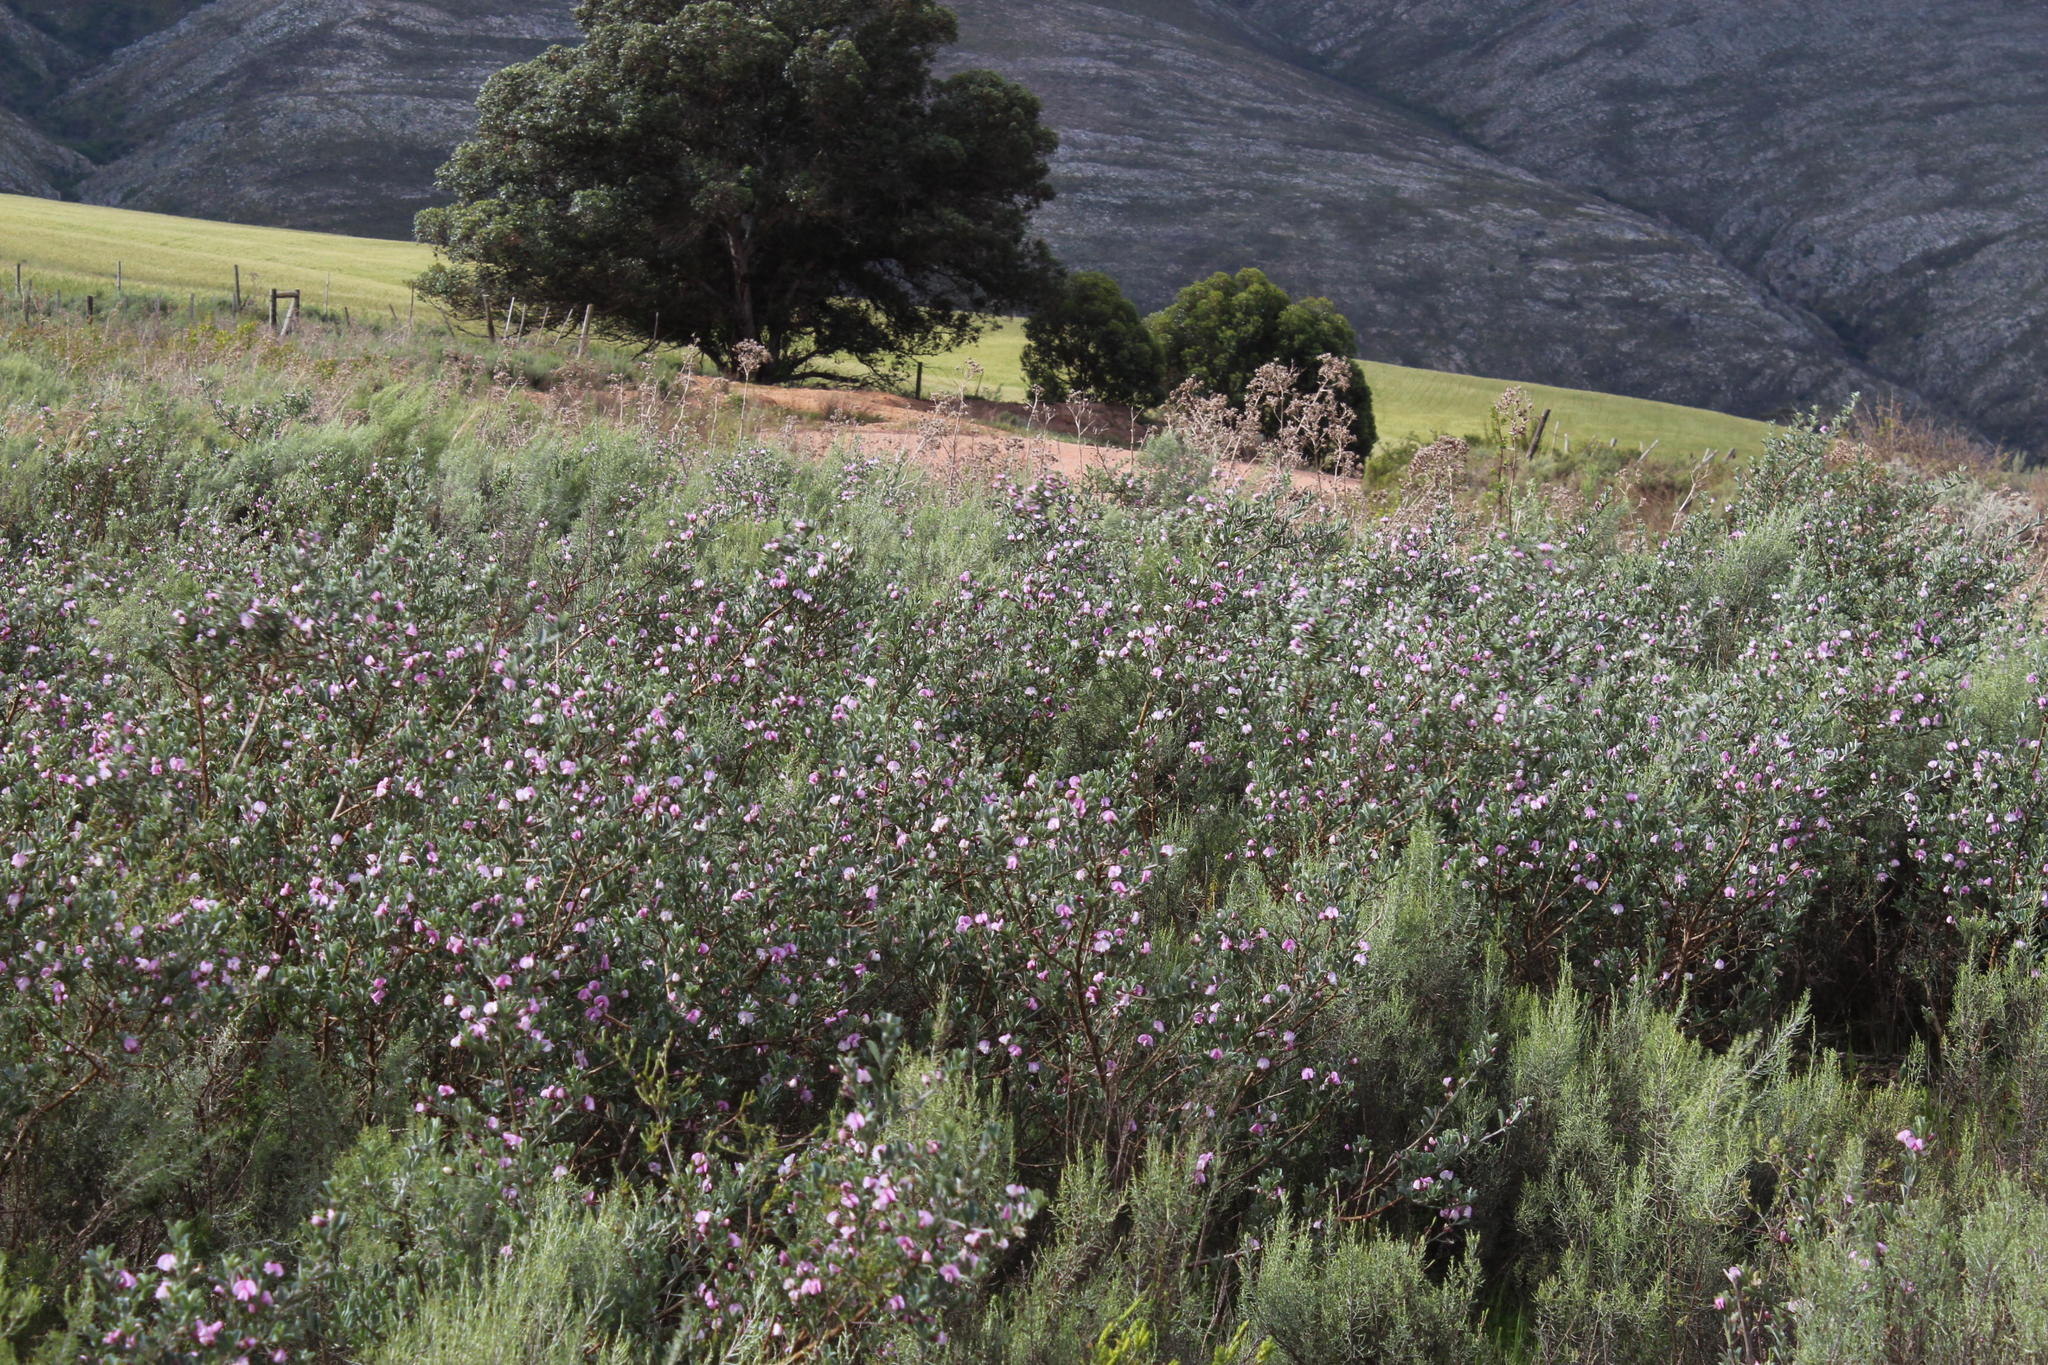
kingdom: Plantae
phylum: Tracheophyta
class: Magnoliopsida
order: Fabales
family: Fabaceae
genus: Podalyria
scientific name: Podalyria myrtillifolia
